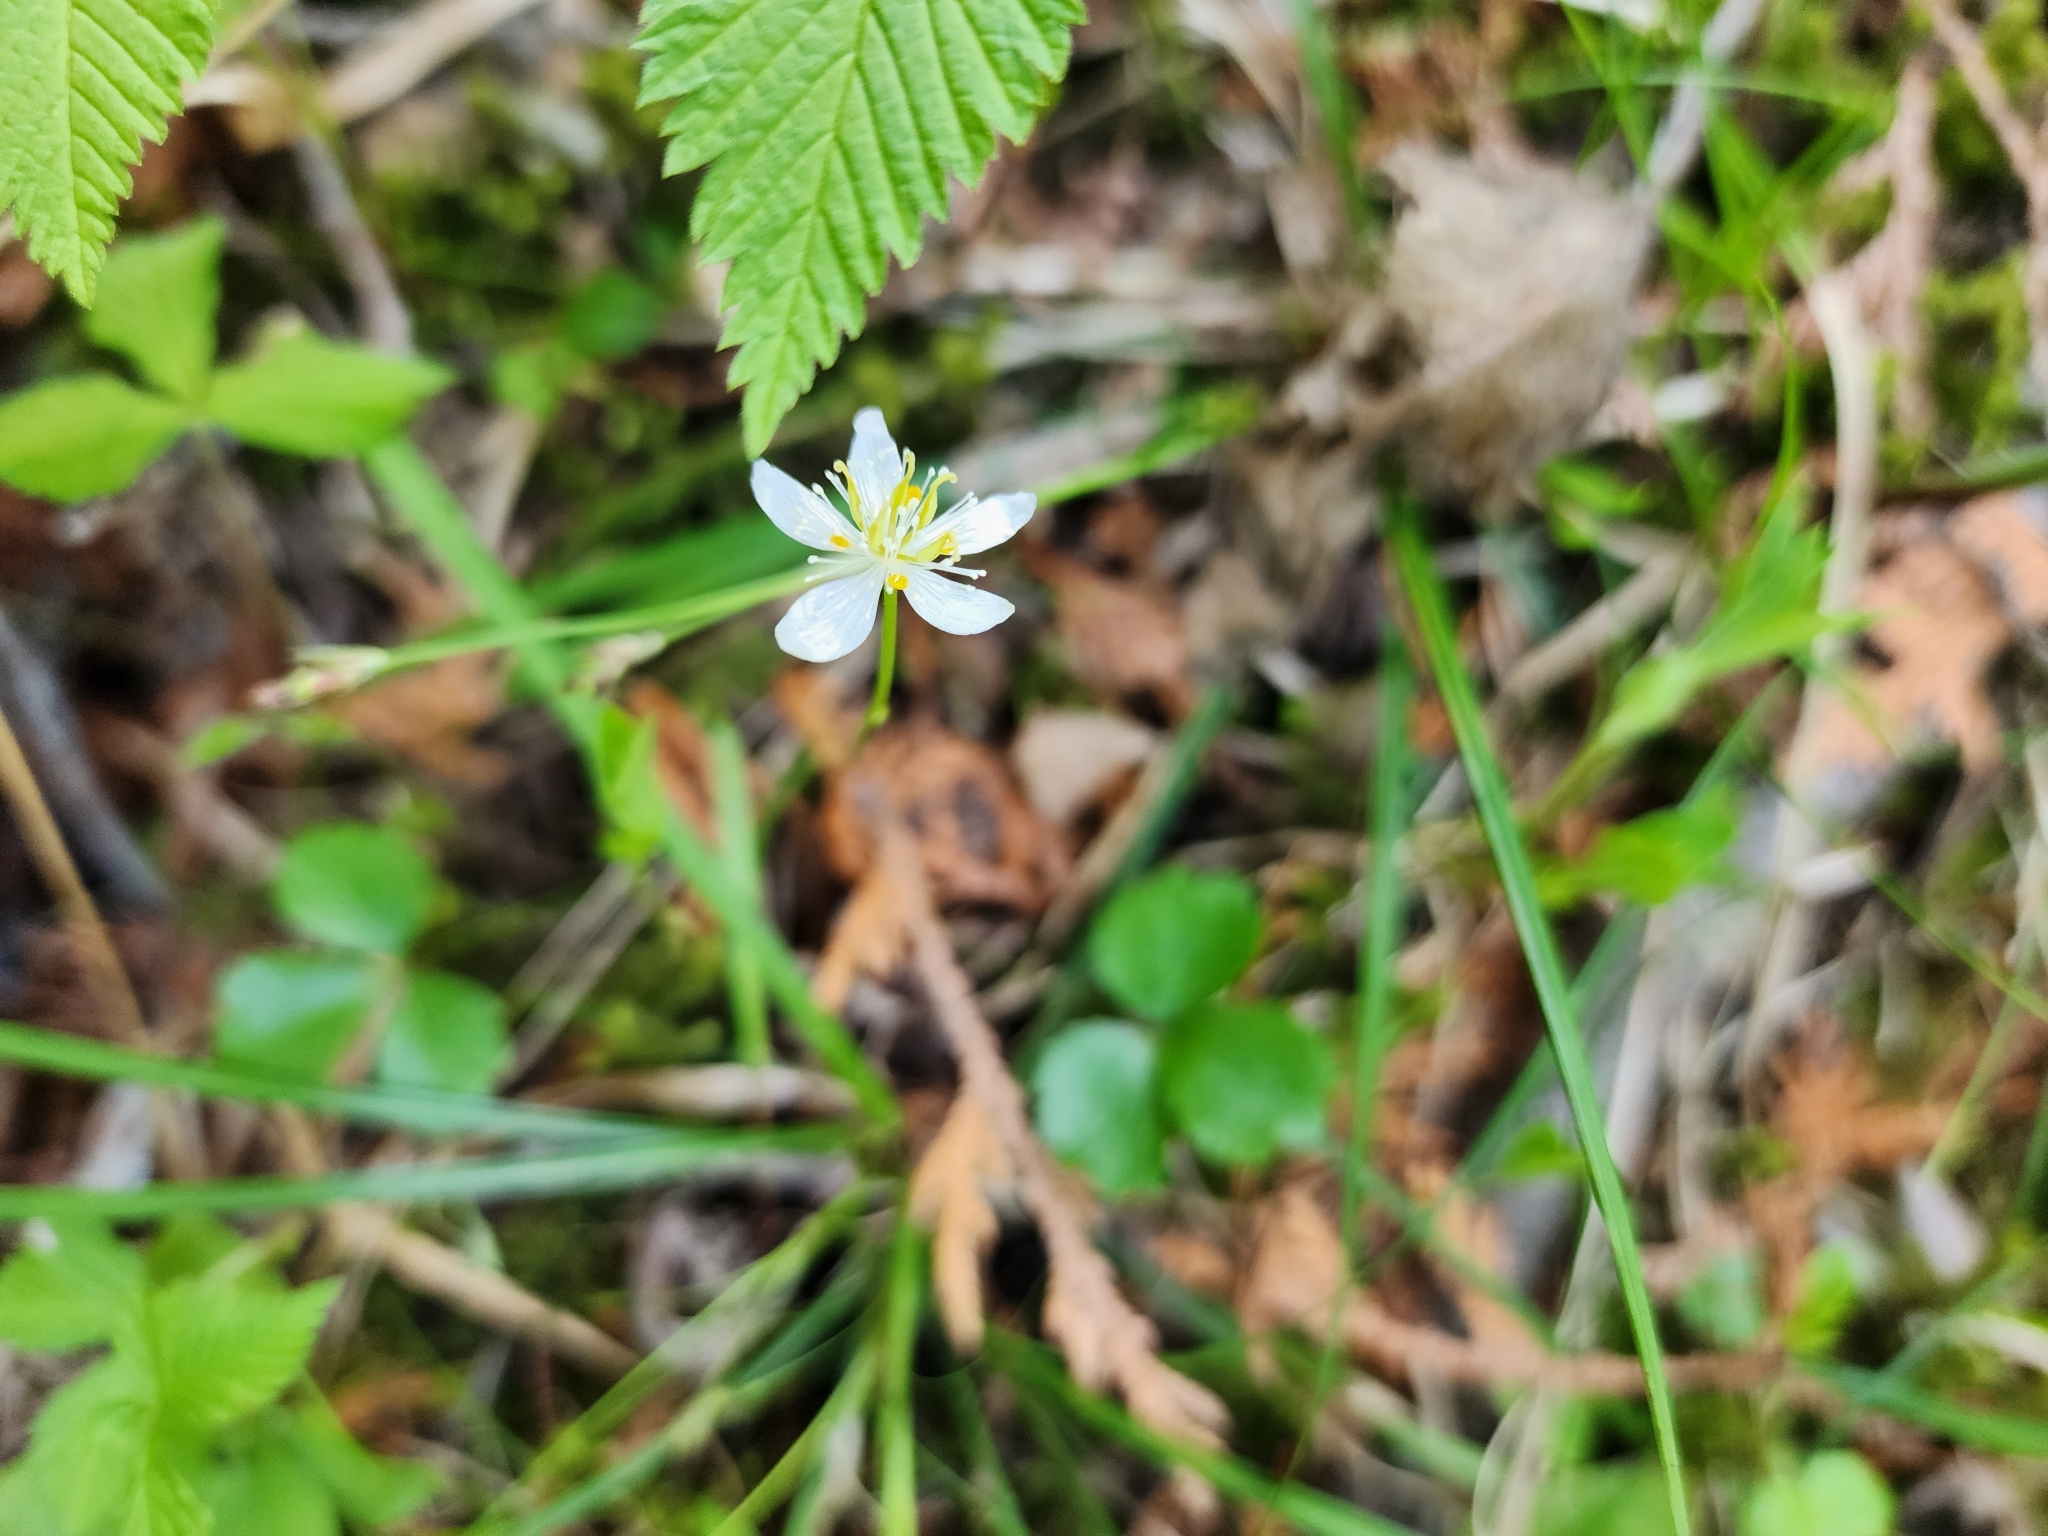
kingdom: Plantae
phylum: Tracheophyta
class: Magnoliopsida
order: Ranunculales
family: Ranunculaceae
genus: Coptis
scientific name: Coptis trifolia
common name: Canker-root
